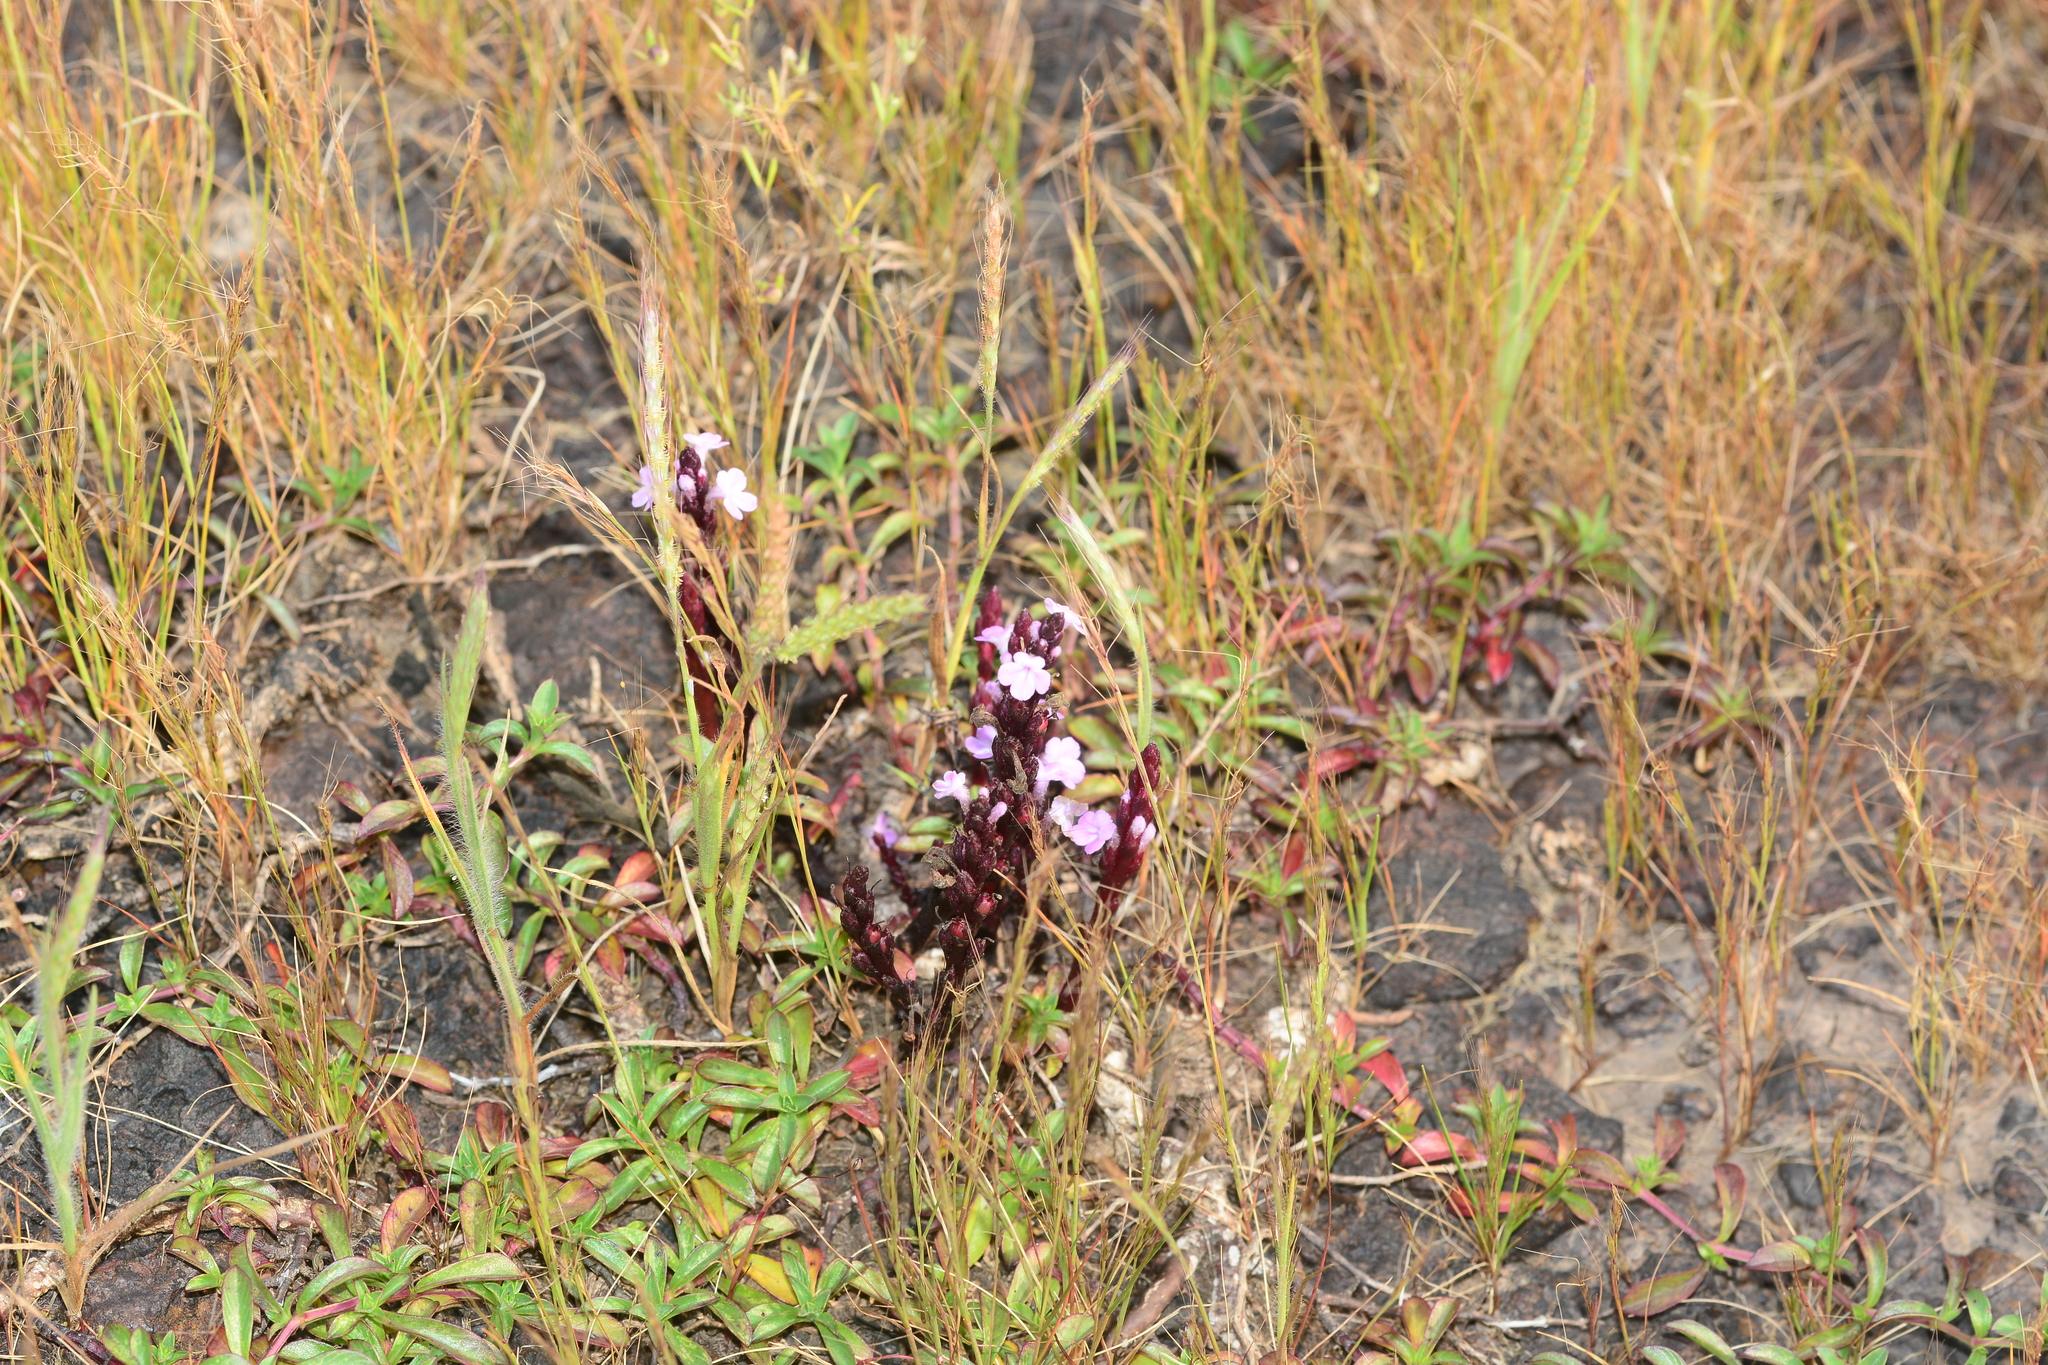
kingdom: Plantae
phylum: Tracheophyta
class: Magnoliopsida
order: Lamiales
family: Orobanchaceae
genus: Striga
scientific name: Striga gesnerioides
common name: Cowpea witchweed
